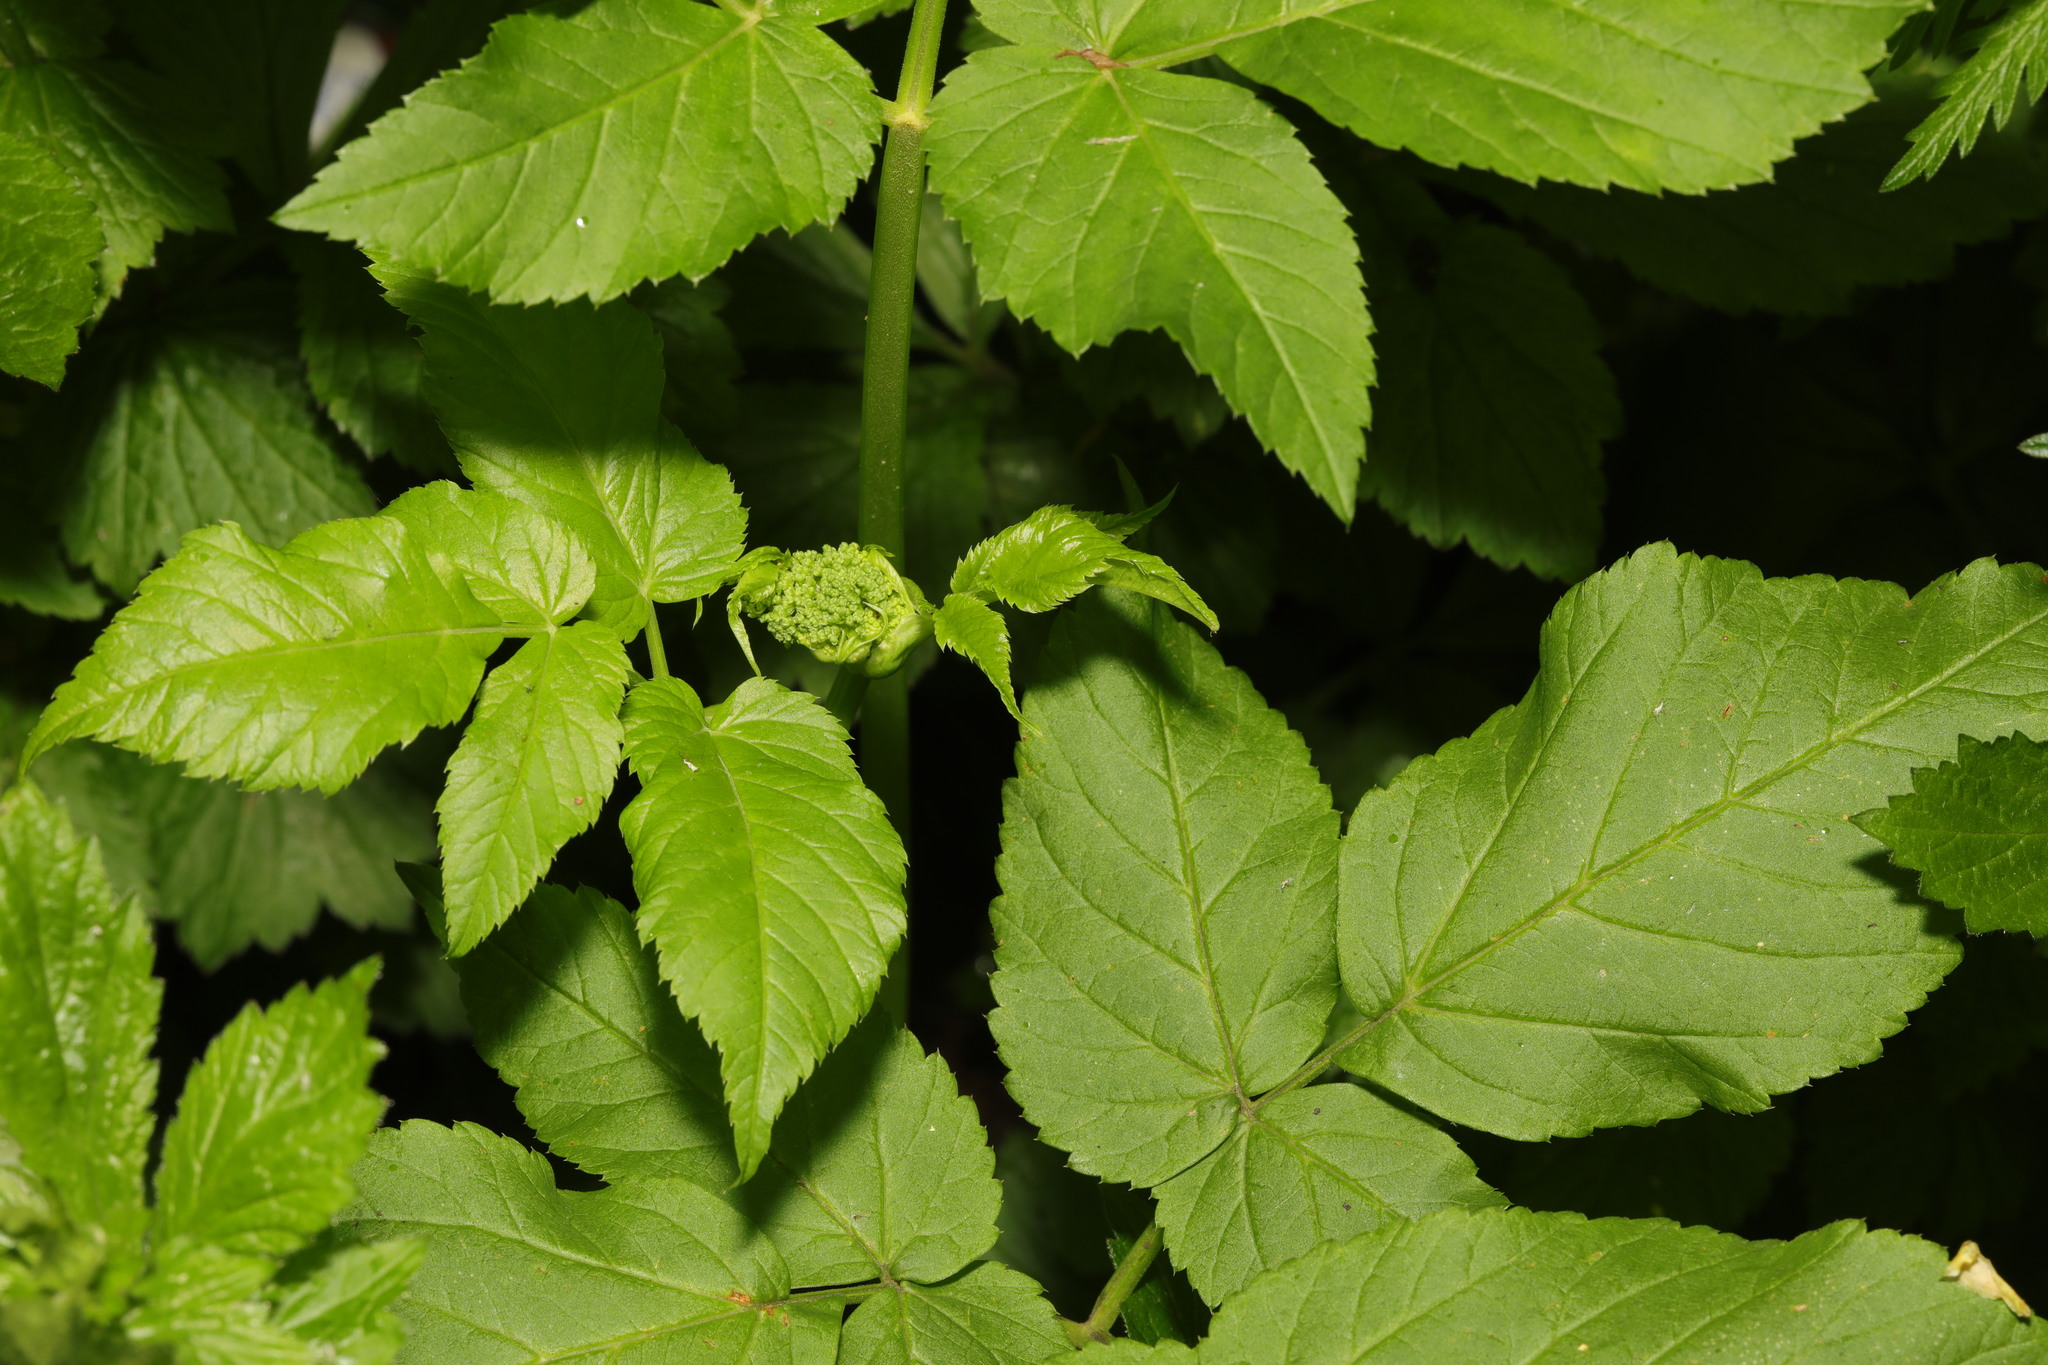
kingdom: Plantae
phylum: Tracheophyta
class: Magnoliopsida
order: Apiales
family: Apiaceae
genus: Aegopodium
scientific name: Aegopodium podagraria
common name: Ground-elder
